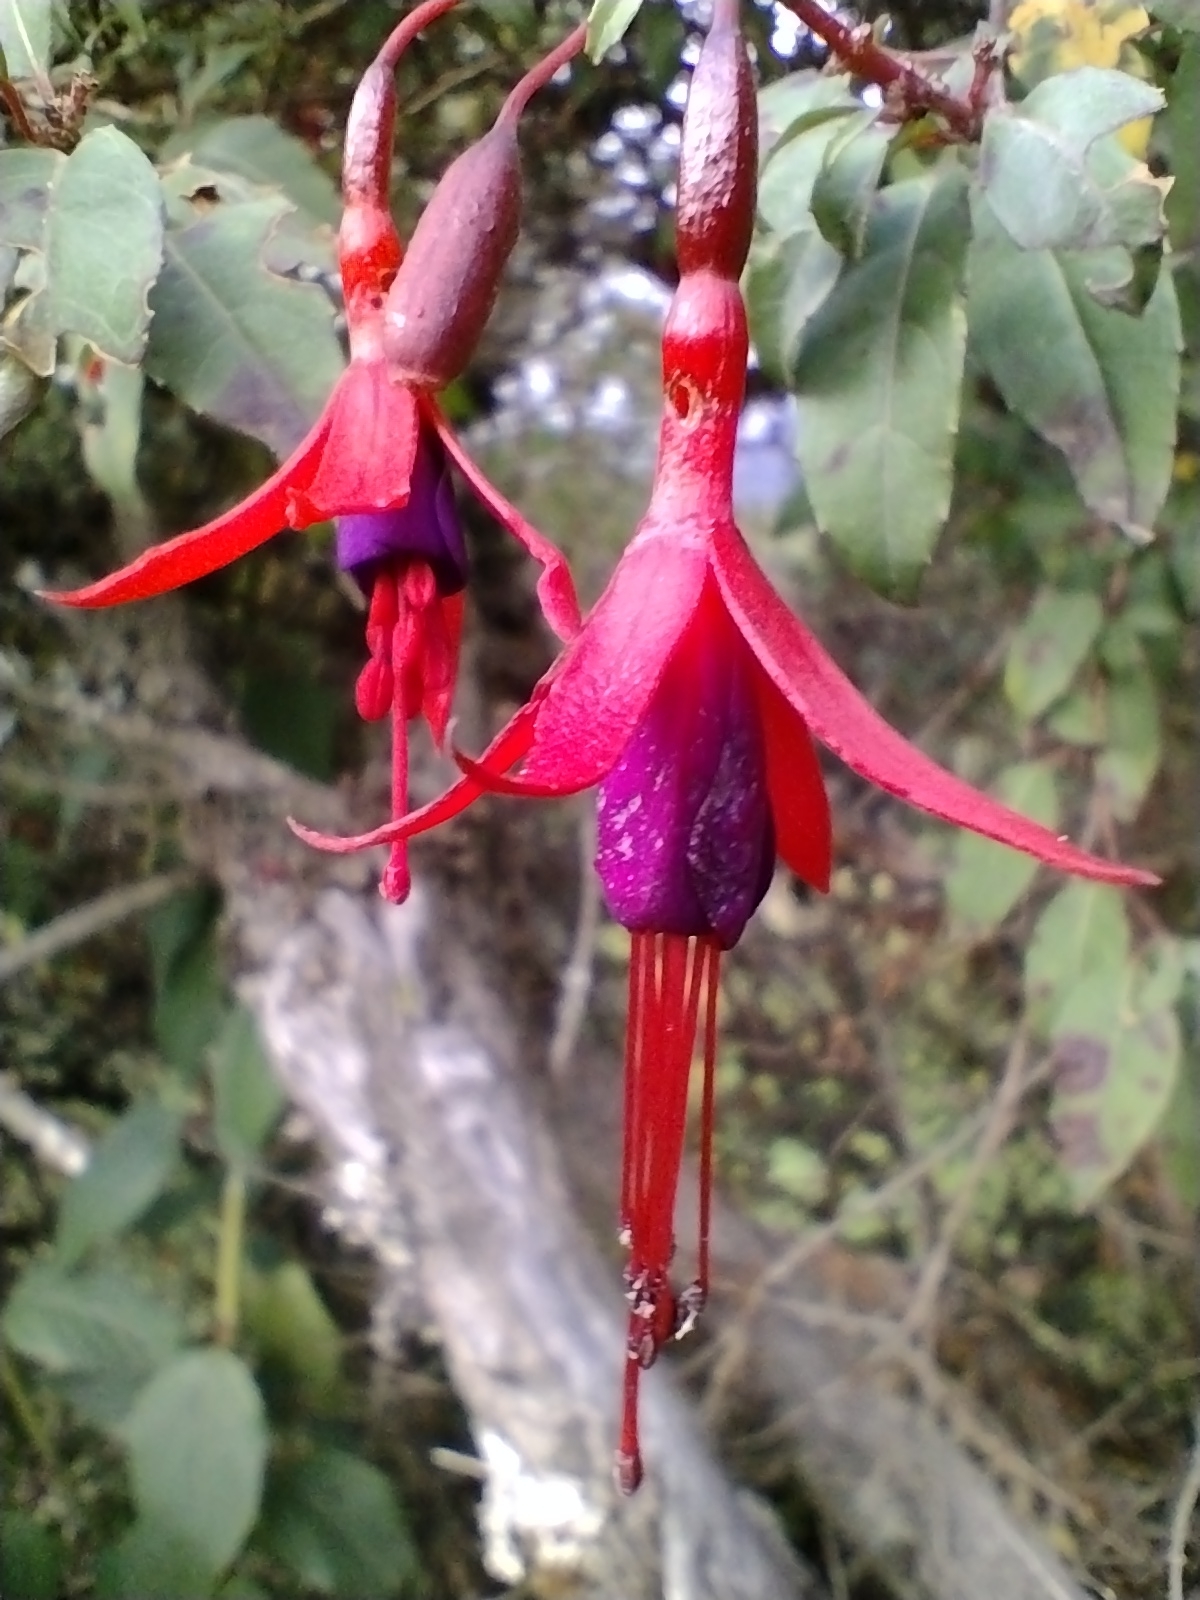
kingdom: Plantae
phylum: Tracheophyta
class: Magnoliopsida
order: Myrtales
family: Onagraceae
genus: Fuchsia
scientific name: Fuchsia magellanica
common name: Hardy fuchsia
